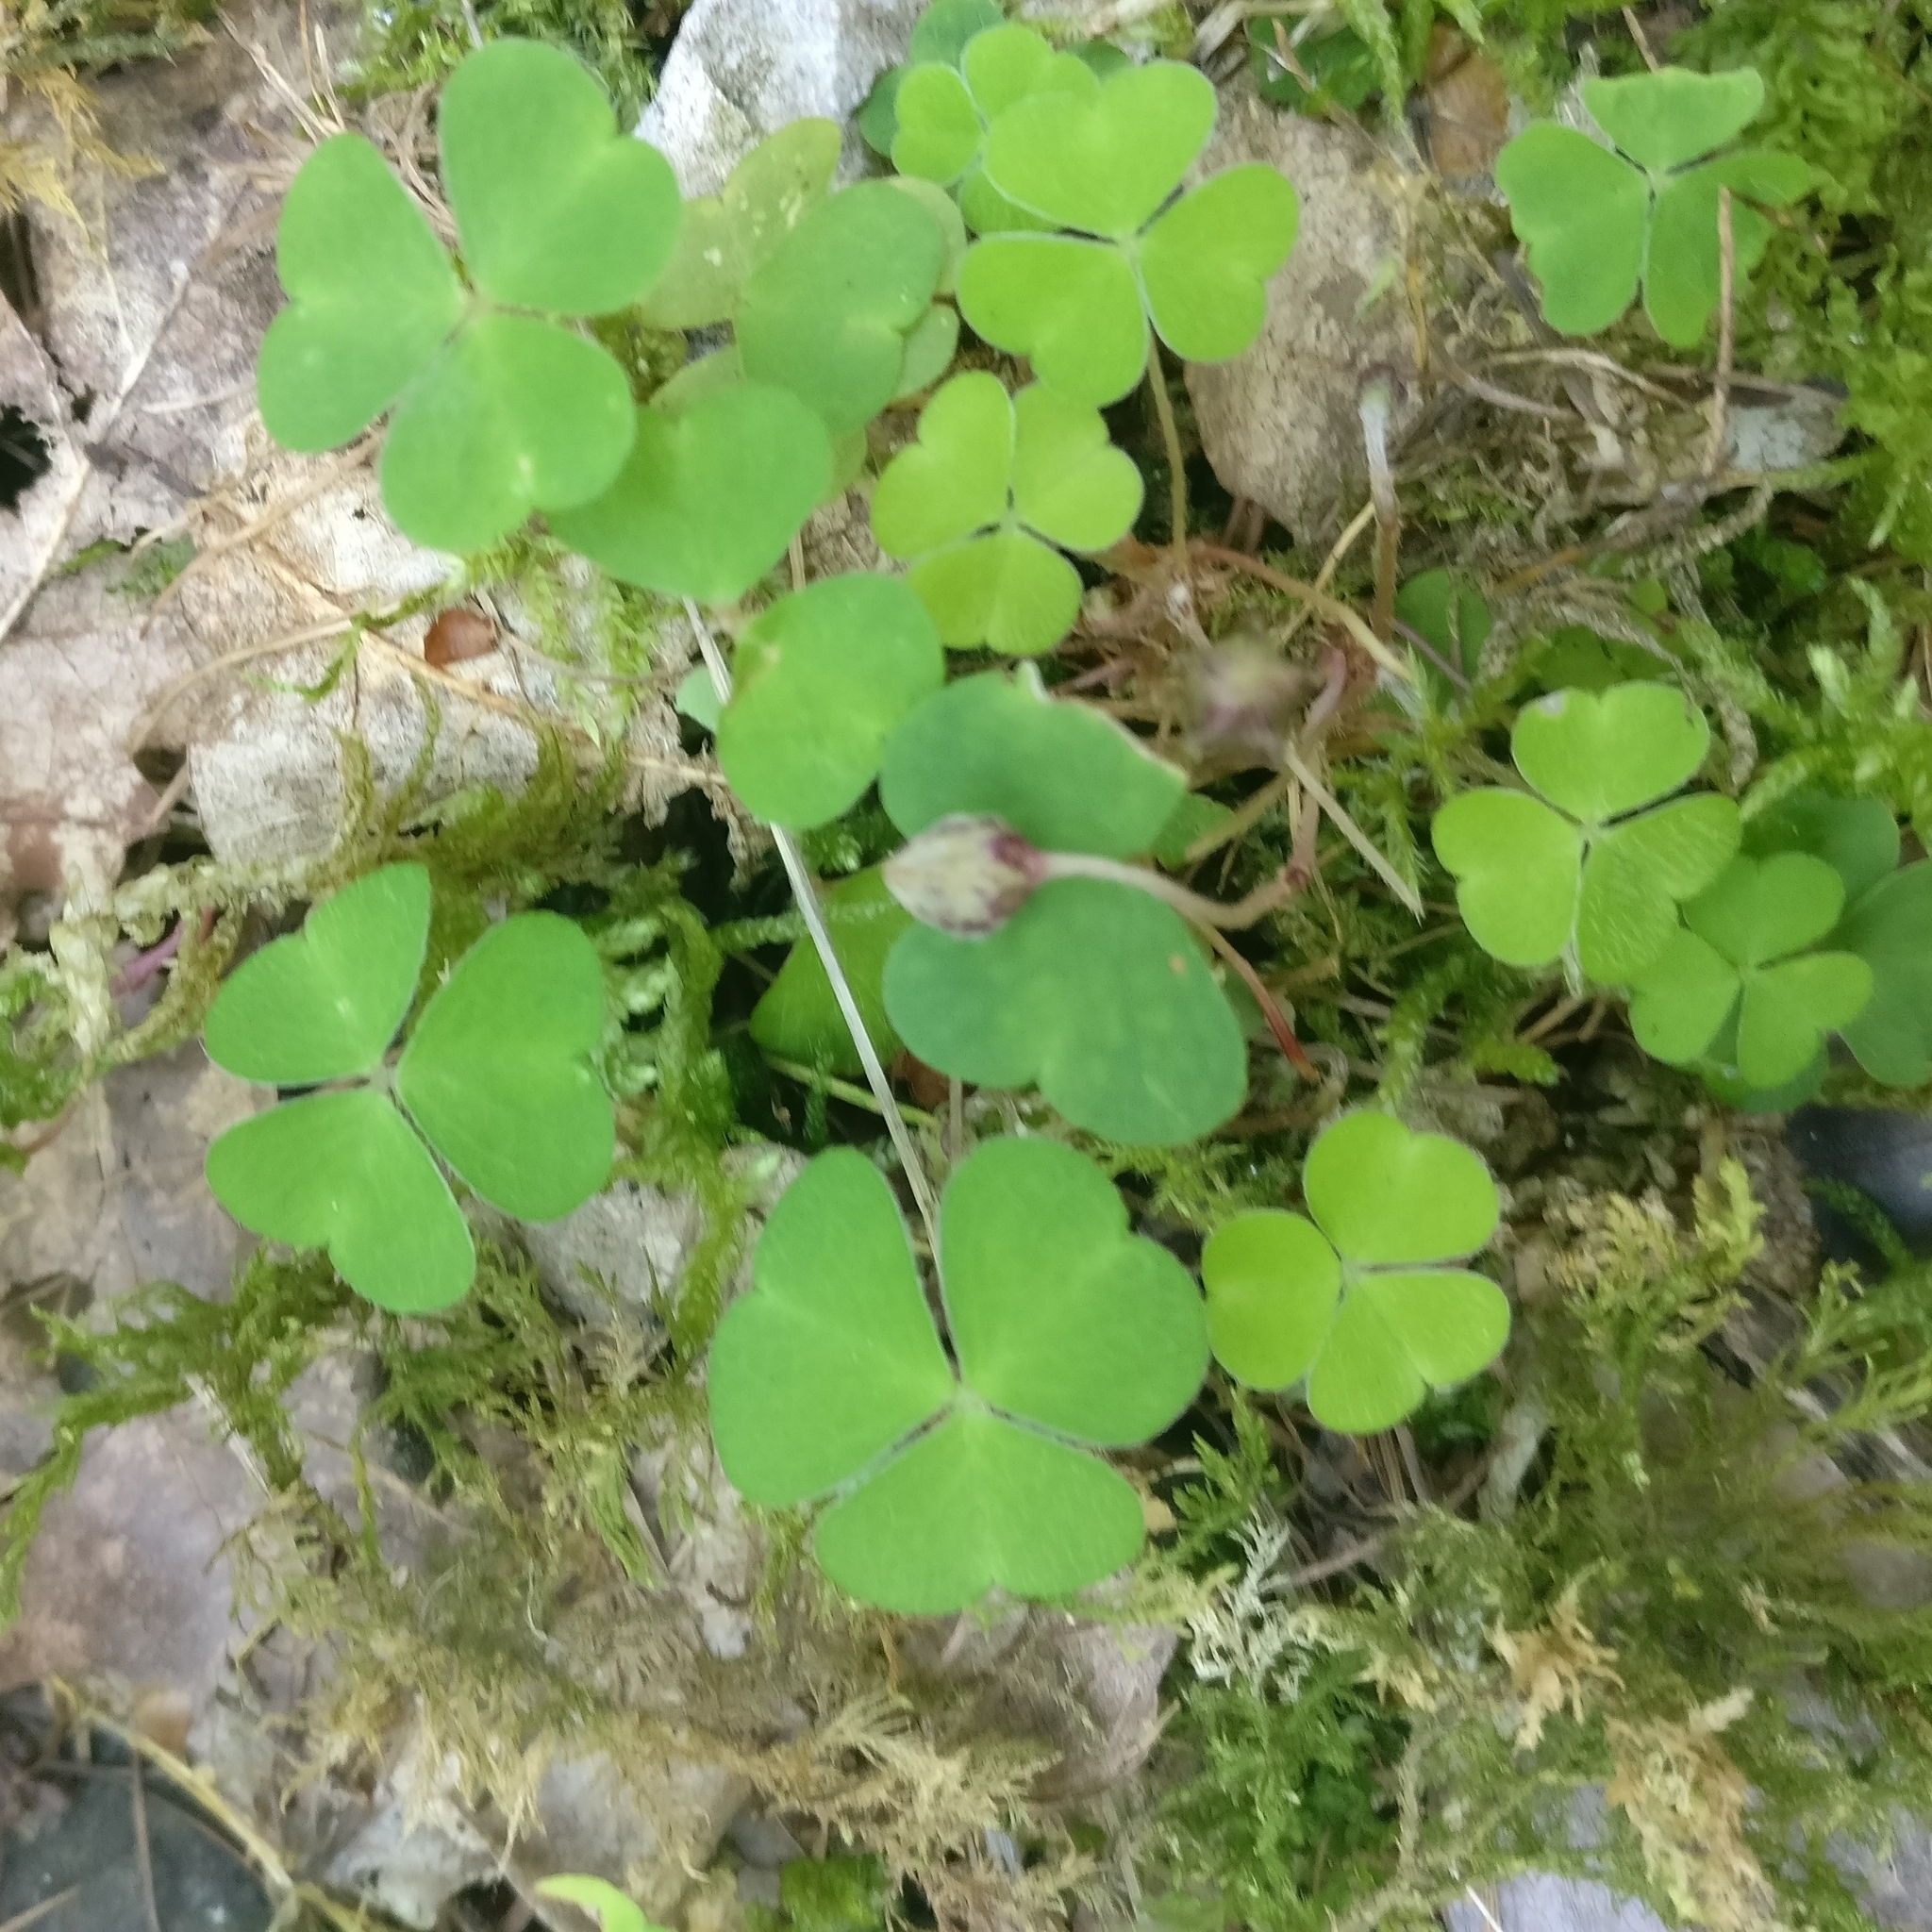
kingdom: Plantae
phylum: Tracheophyta
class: Magnoliopsida
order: Oxalidales
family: Oxalidaceae
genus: Oxalis
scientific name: Oxalis acetosella
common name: Wood-sorrel
